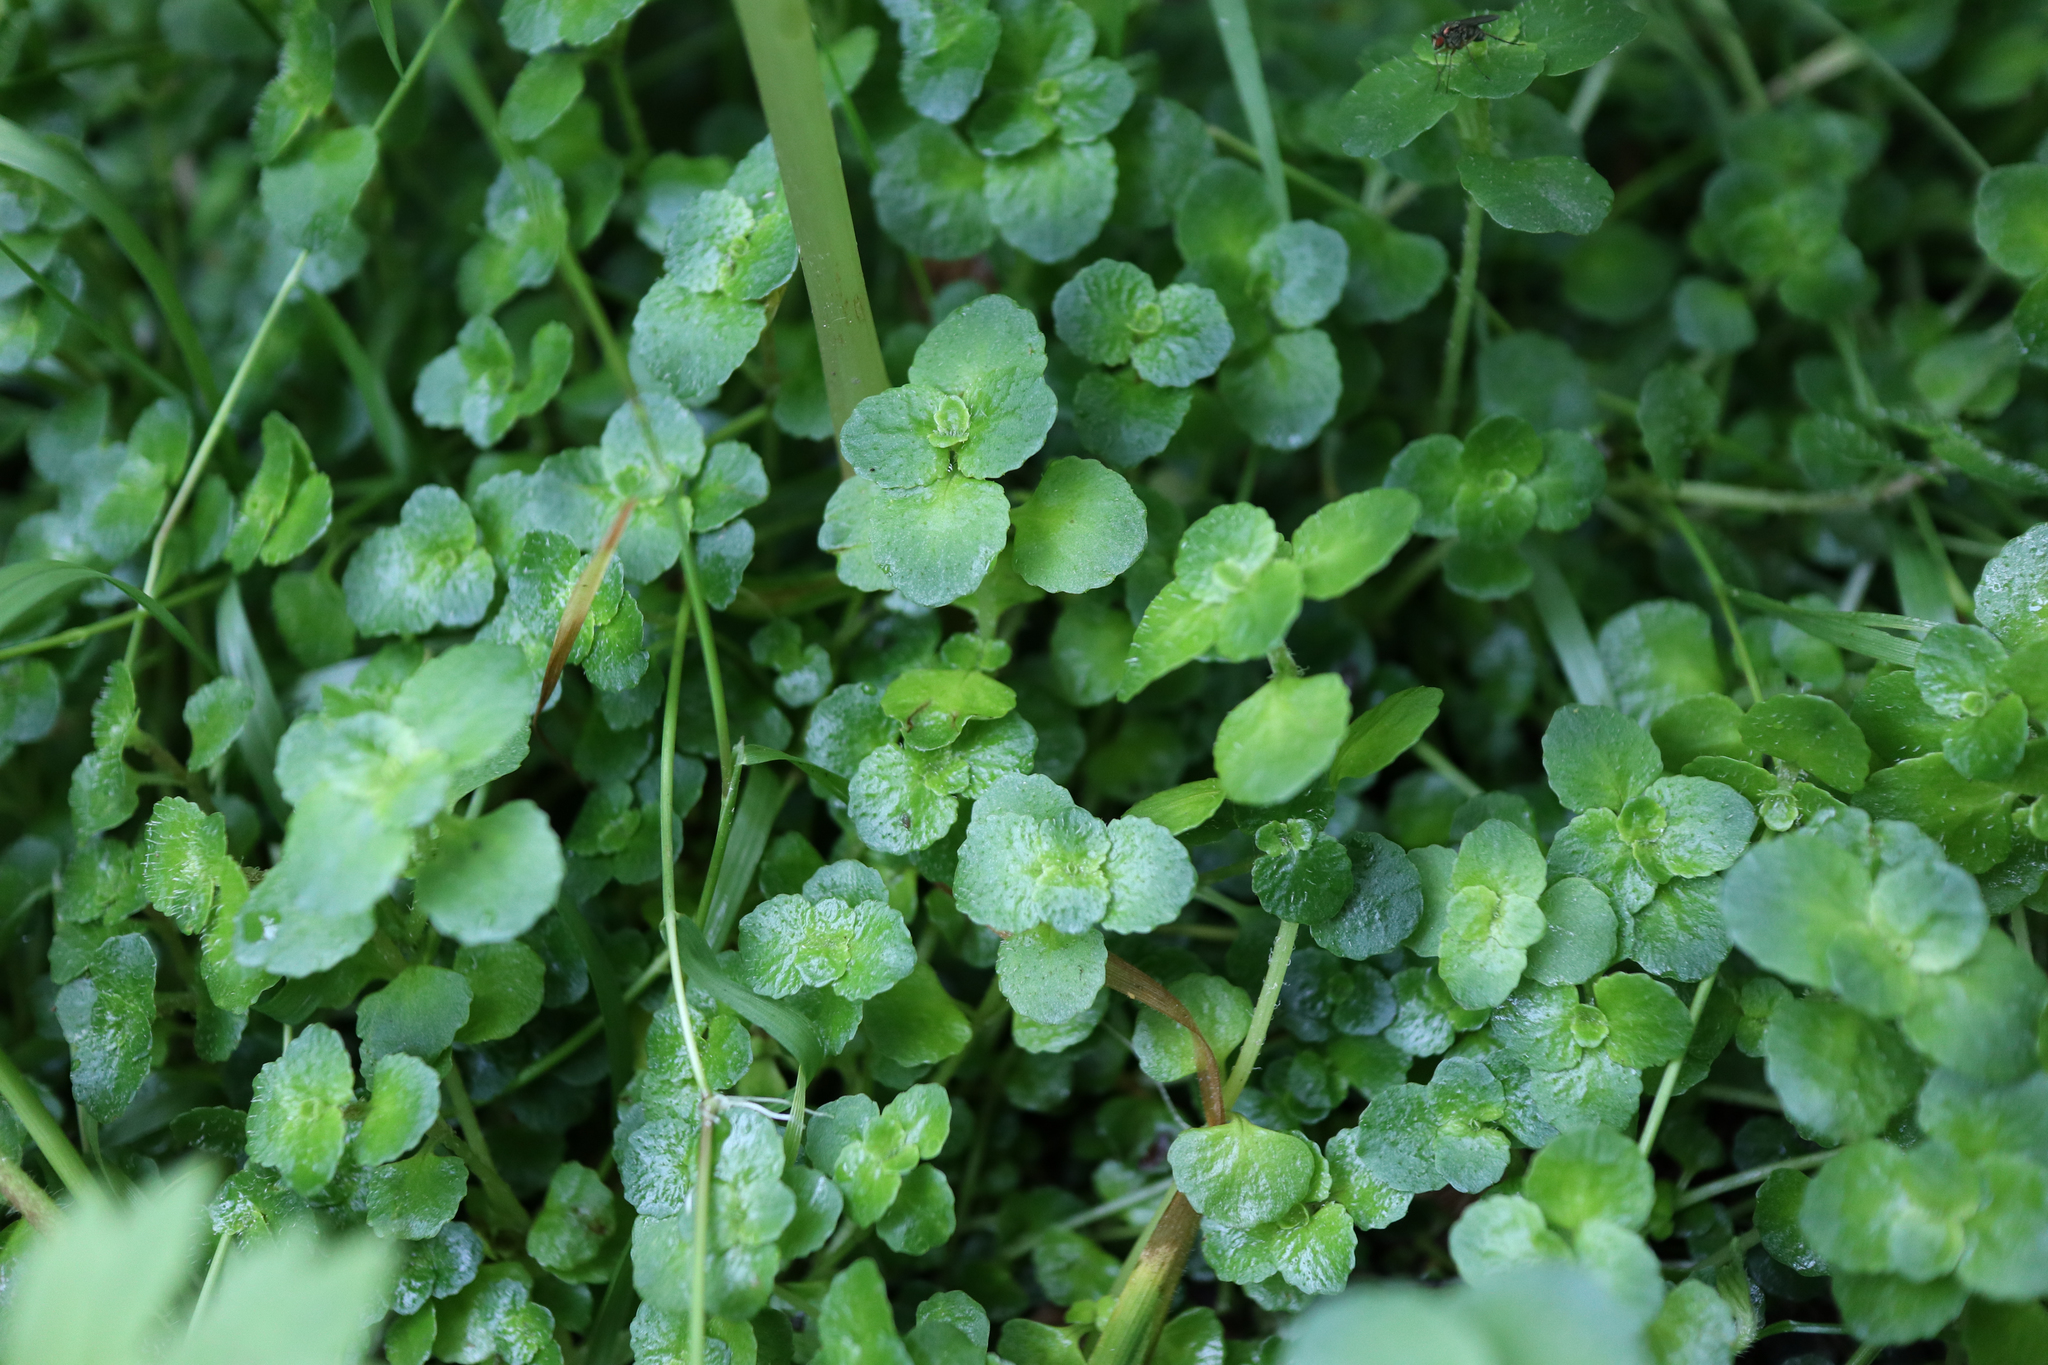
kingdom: Plantae
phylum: Tracheophyta
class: Magnoliopsida
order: Saxifragales
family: Saxifragaceae
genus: Chrysosplenium
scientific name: Chrysosplenium oppositifolium
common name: Opposite-leaved golden-saxifrage
